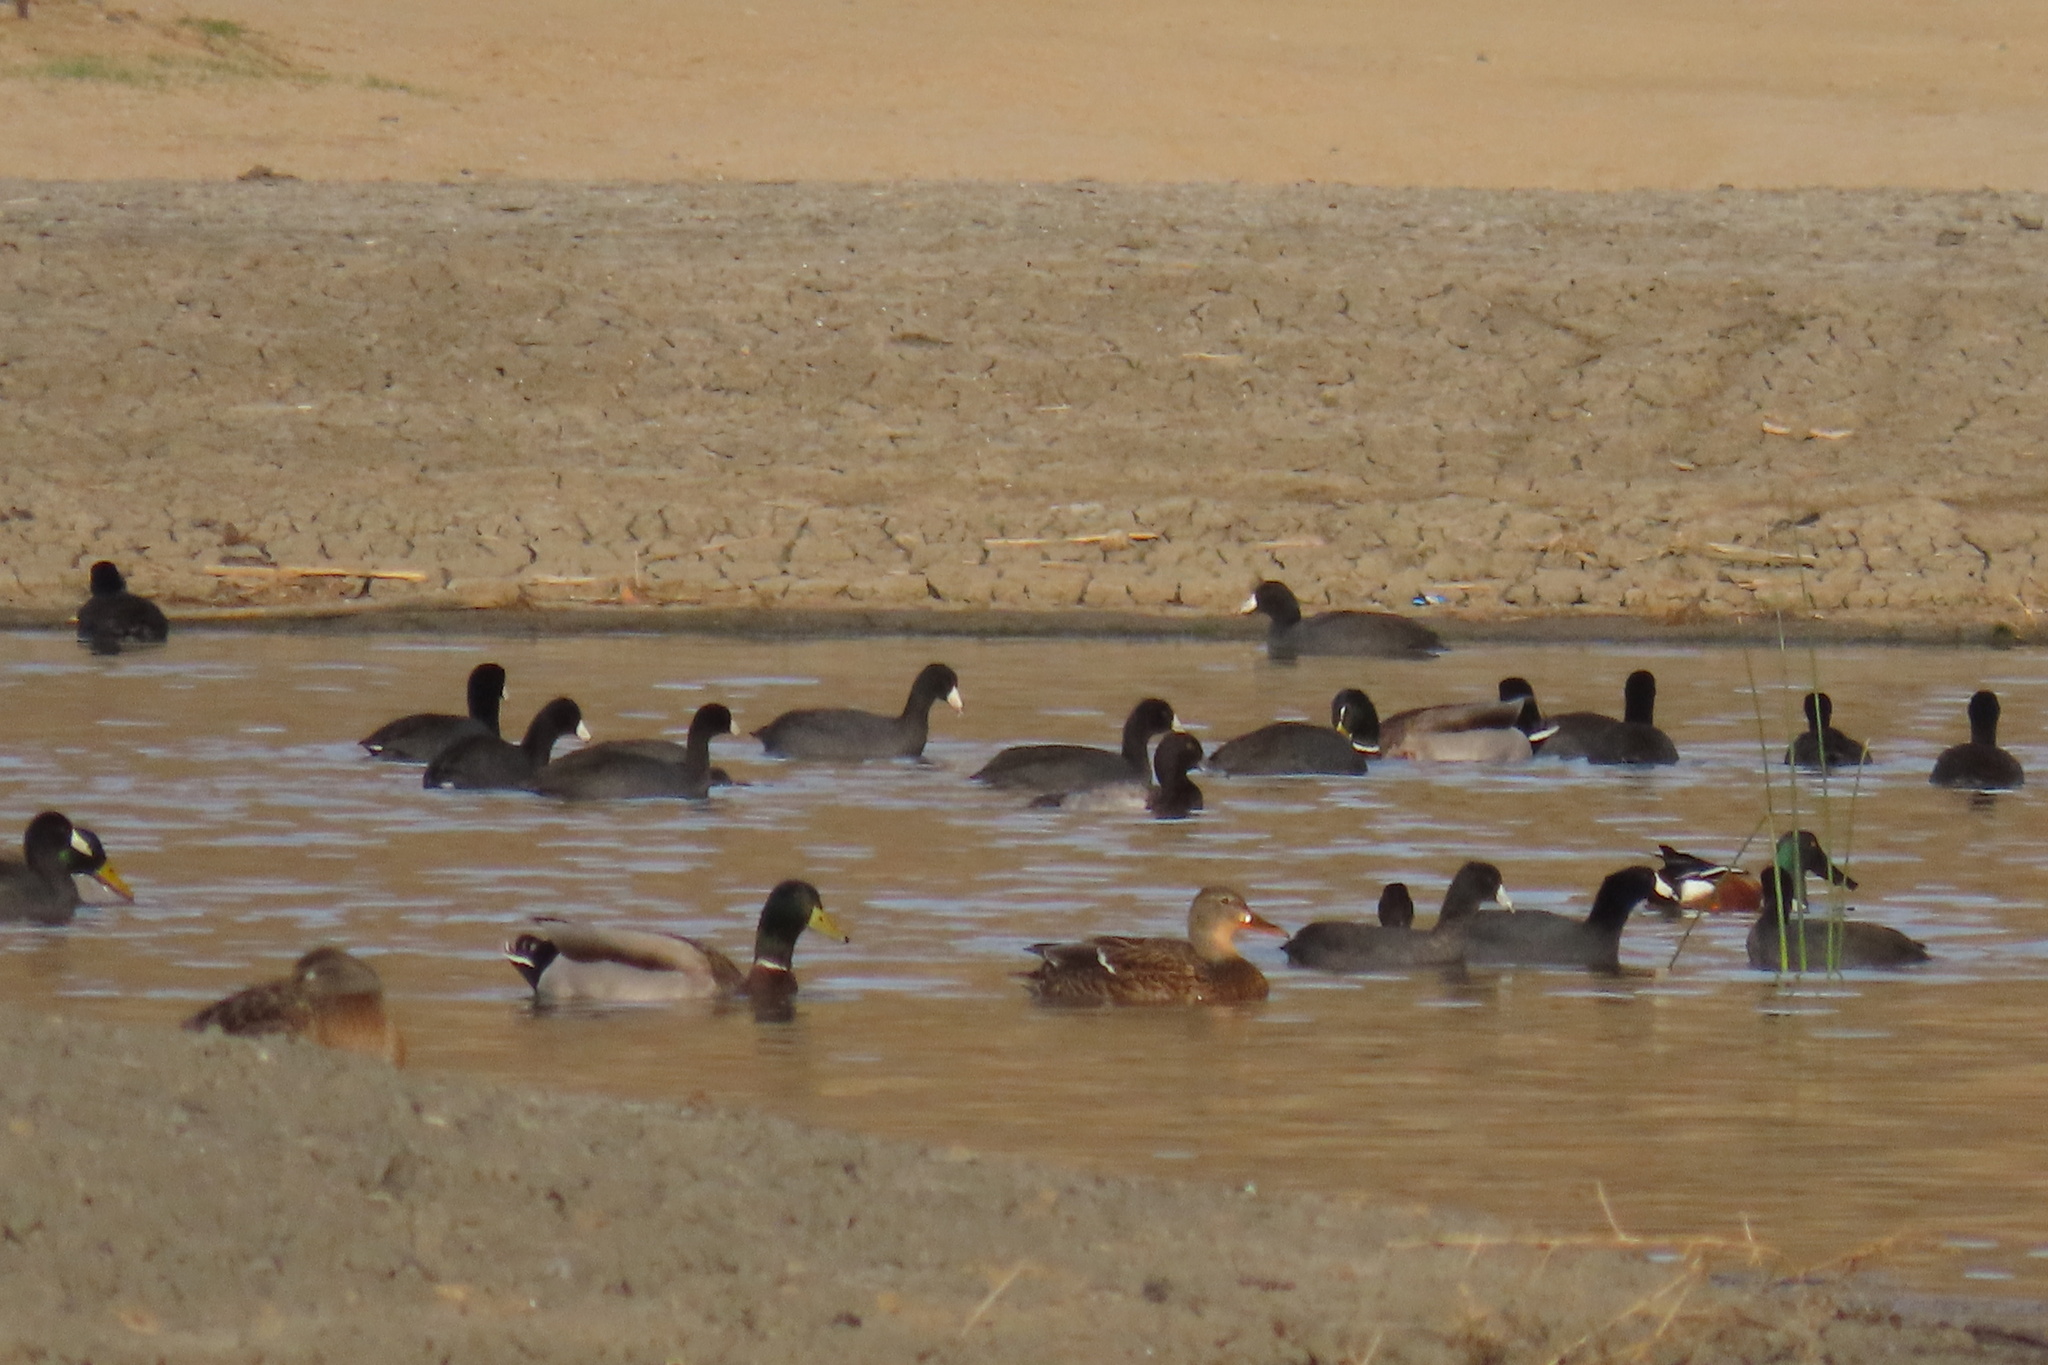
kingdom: Animalia
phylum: Chordata
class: Aves
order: Anseriformes
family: Anatidae
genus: Anas
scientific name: Anas platyrhynchos
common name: Mallard
